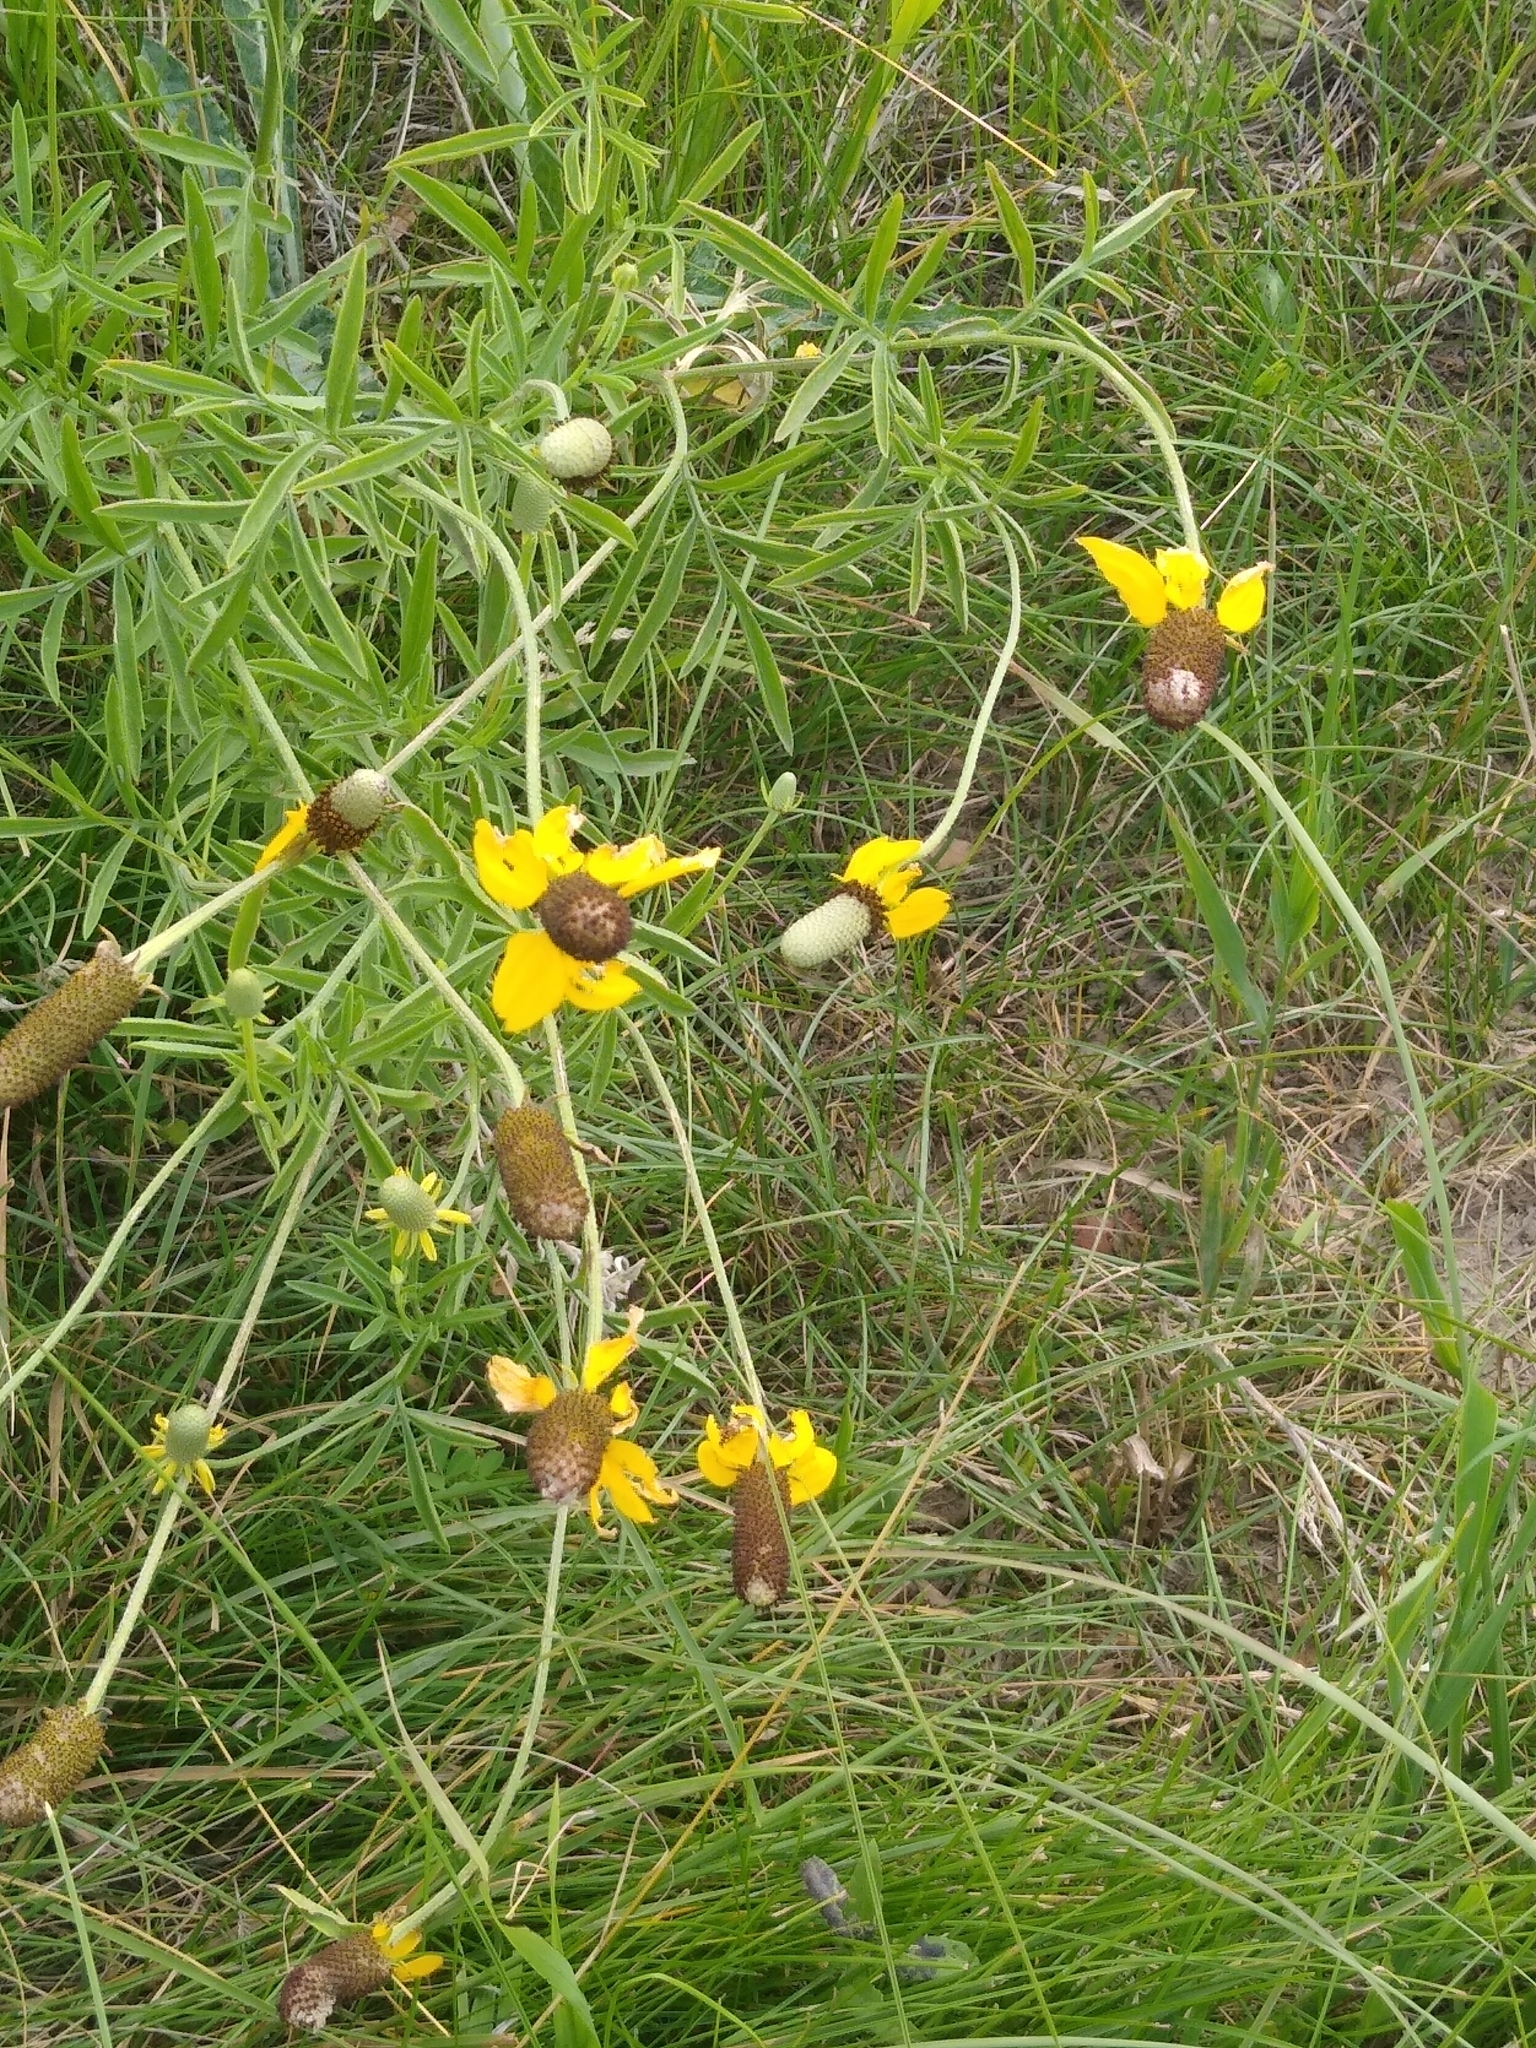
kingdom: Plantae
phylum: Tracheophyta
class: Magnoliopsida
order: Asterales
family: Asteraceae
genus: Ratibida
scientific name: Ratibida columnifera
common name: Prairie coneflower
